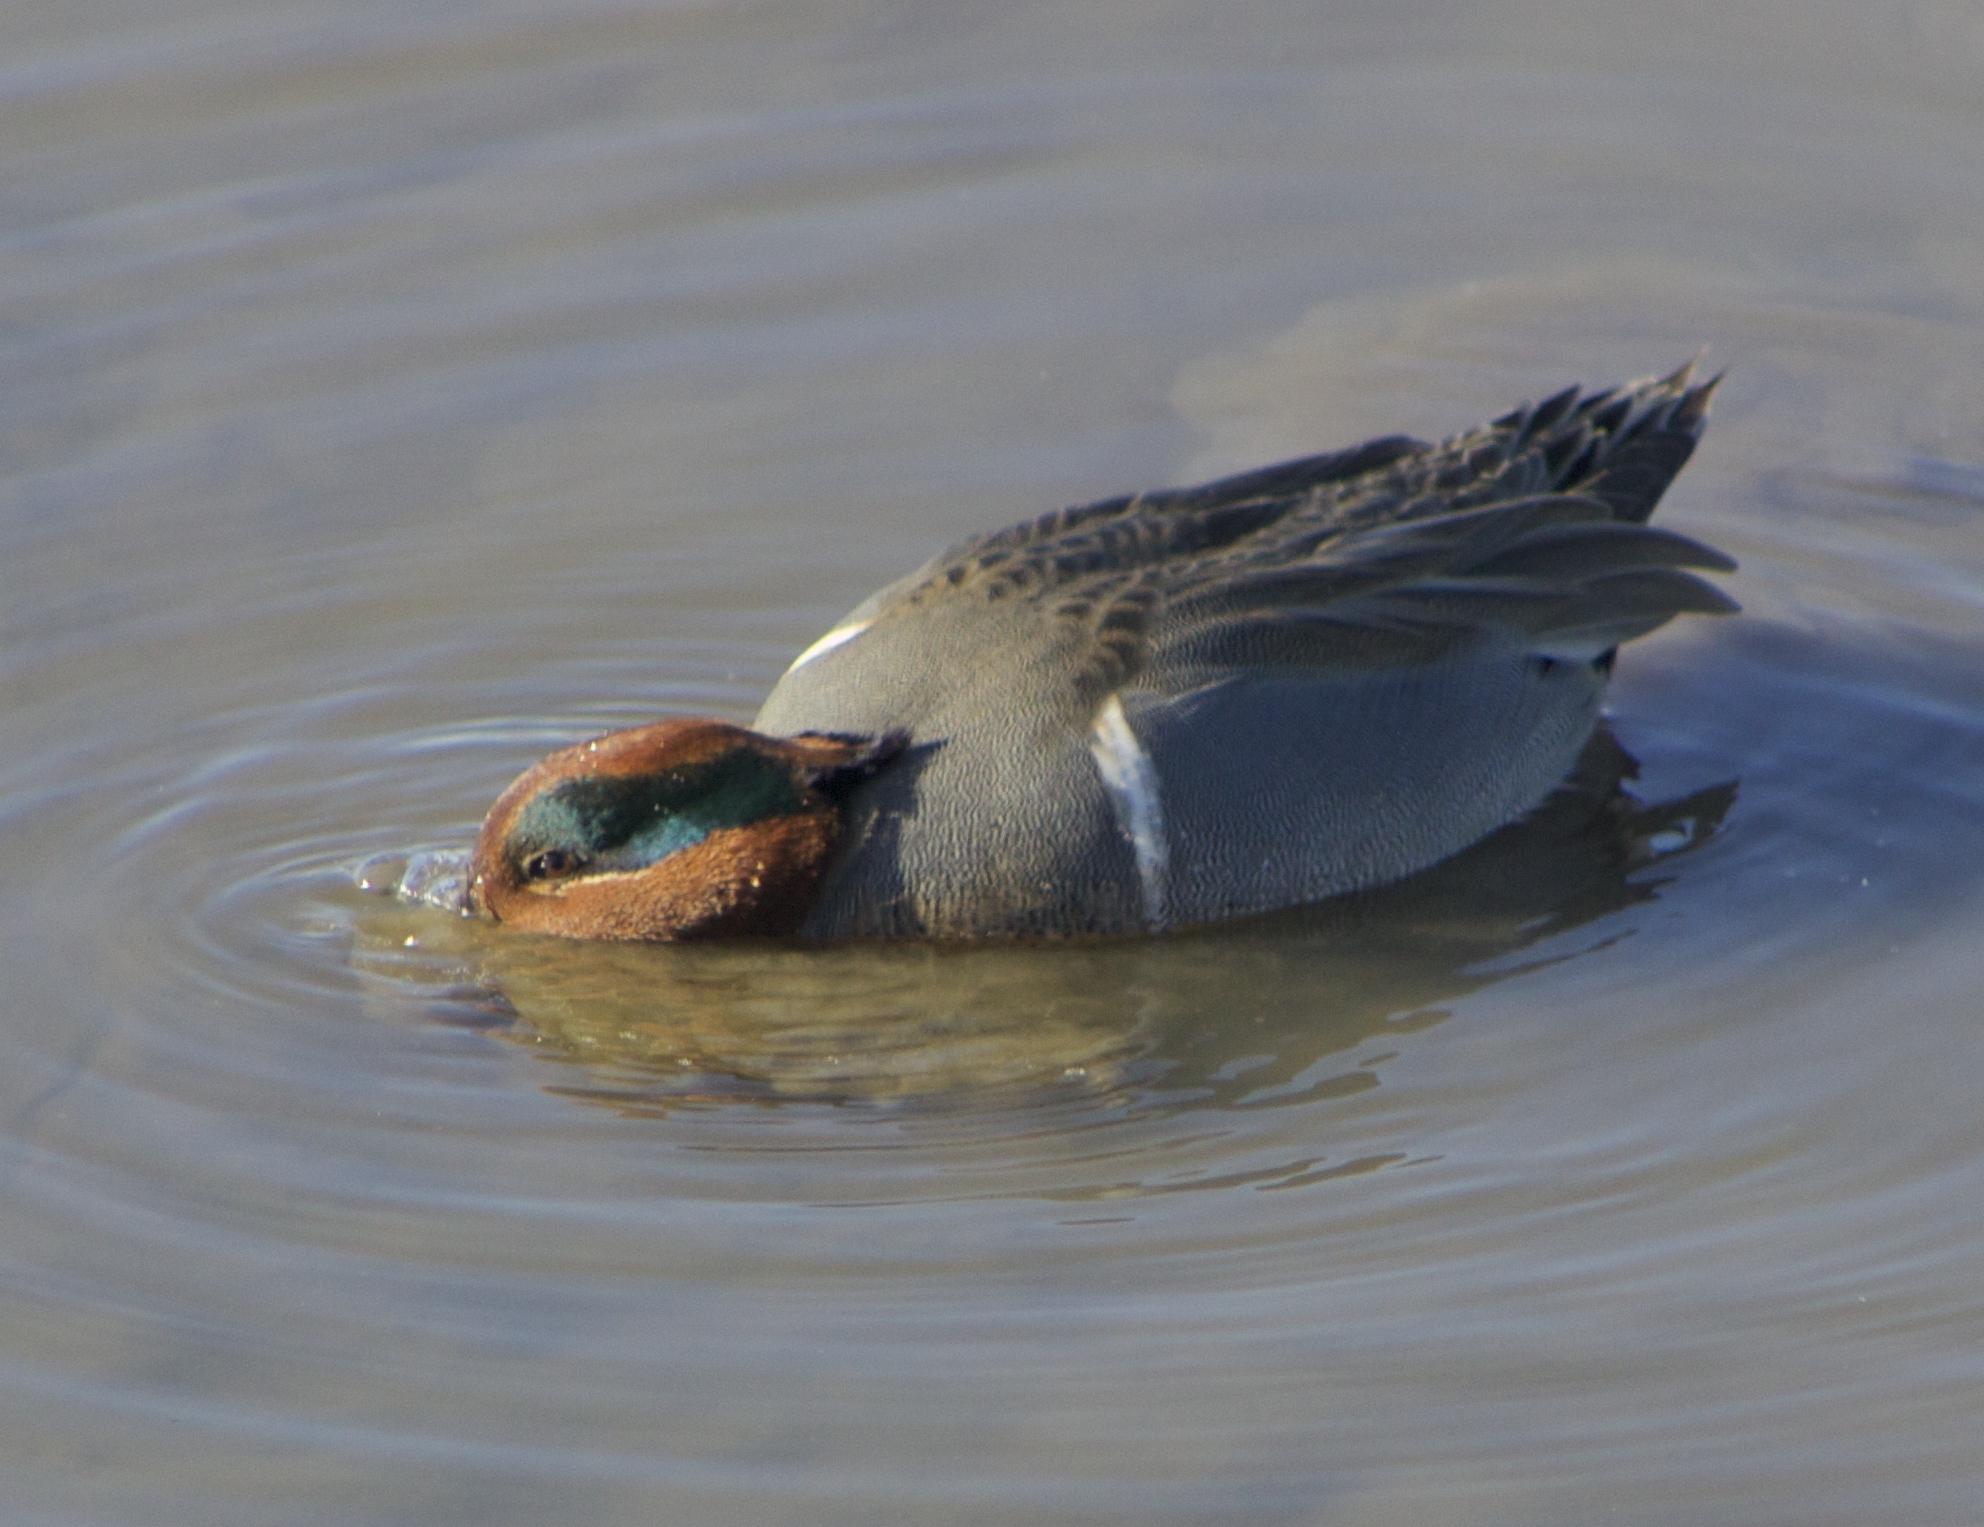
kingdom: Animalia
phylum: Chordata
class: Aves
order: Anseriformes
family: Anatidae
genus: Anas
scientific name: Anas crecca
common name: Eurasian teal
